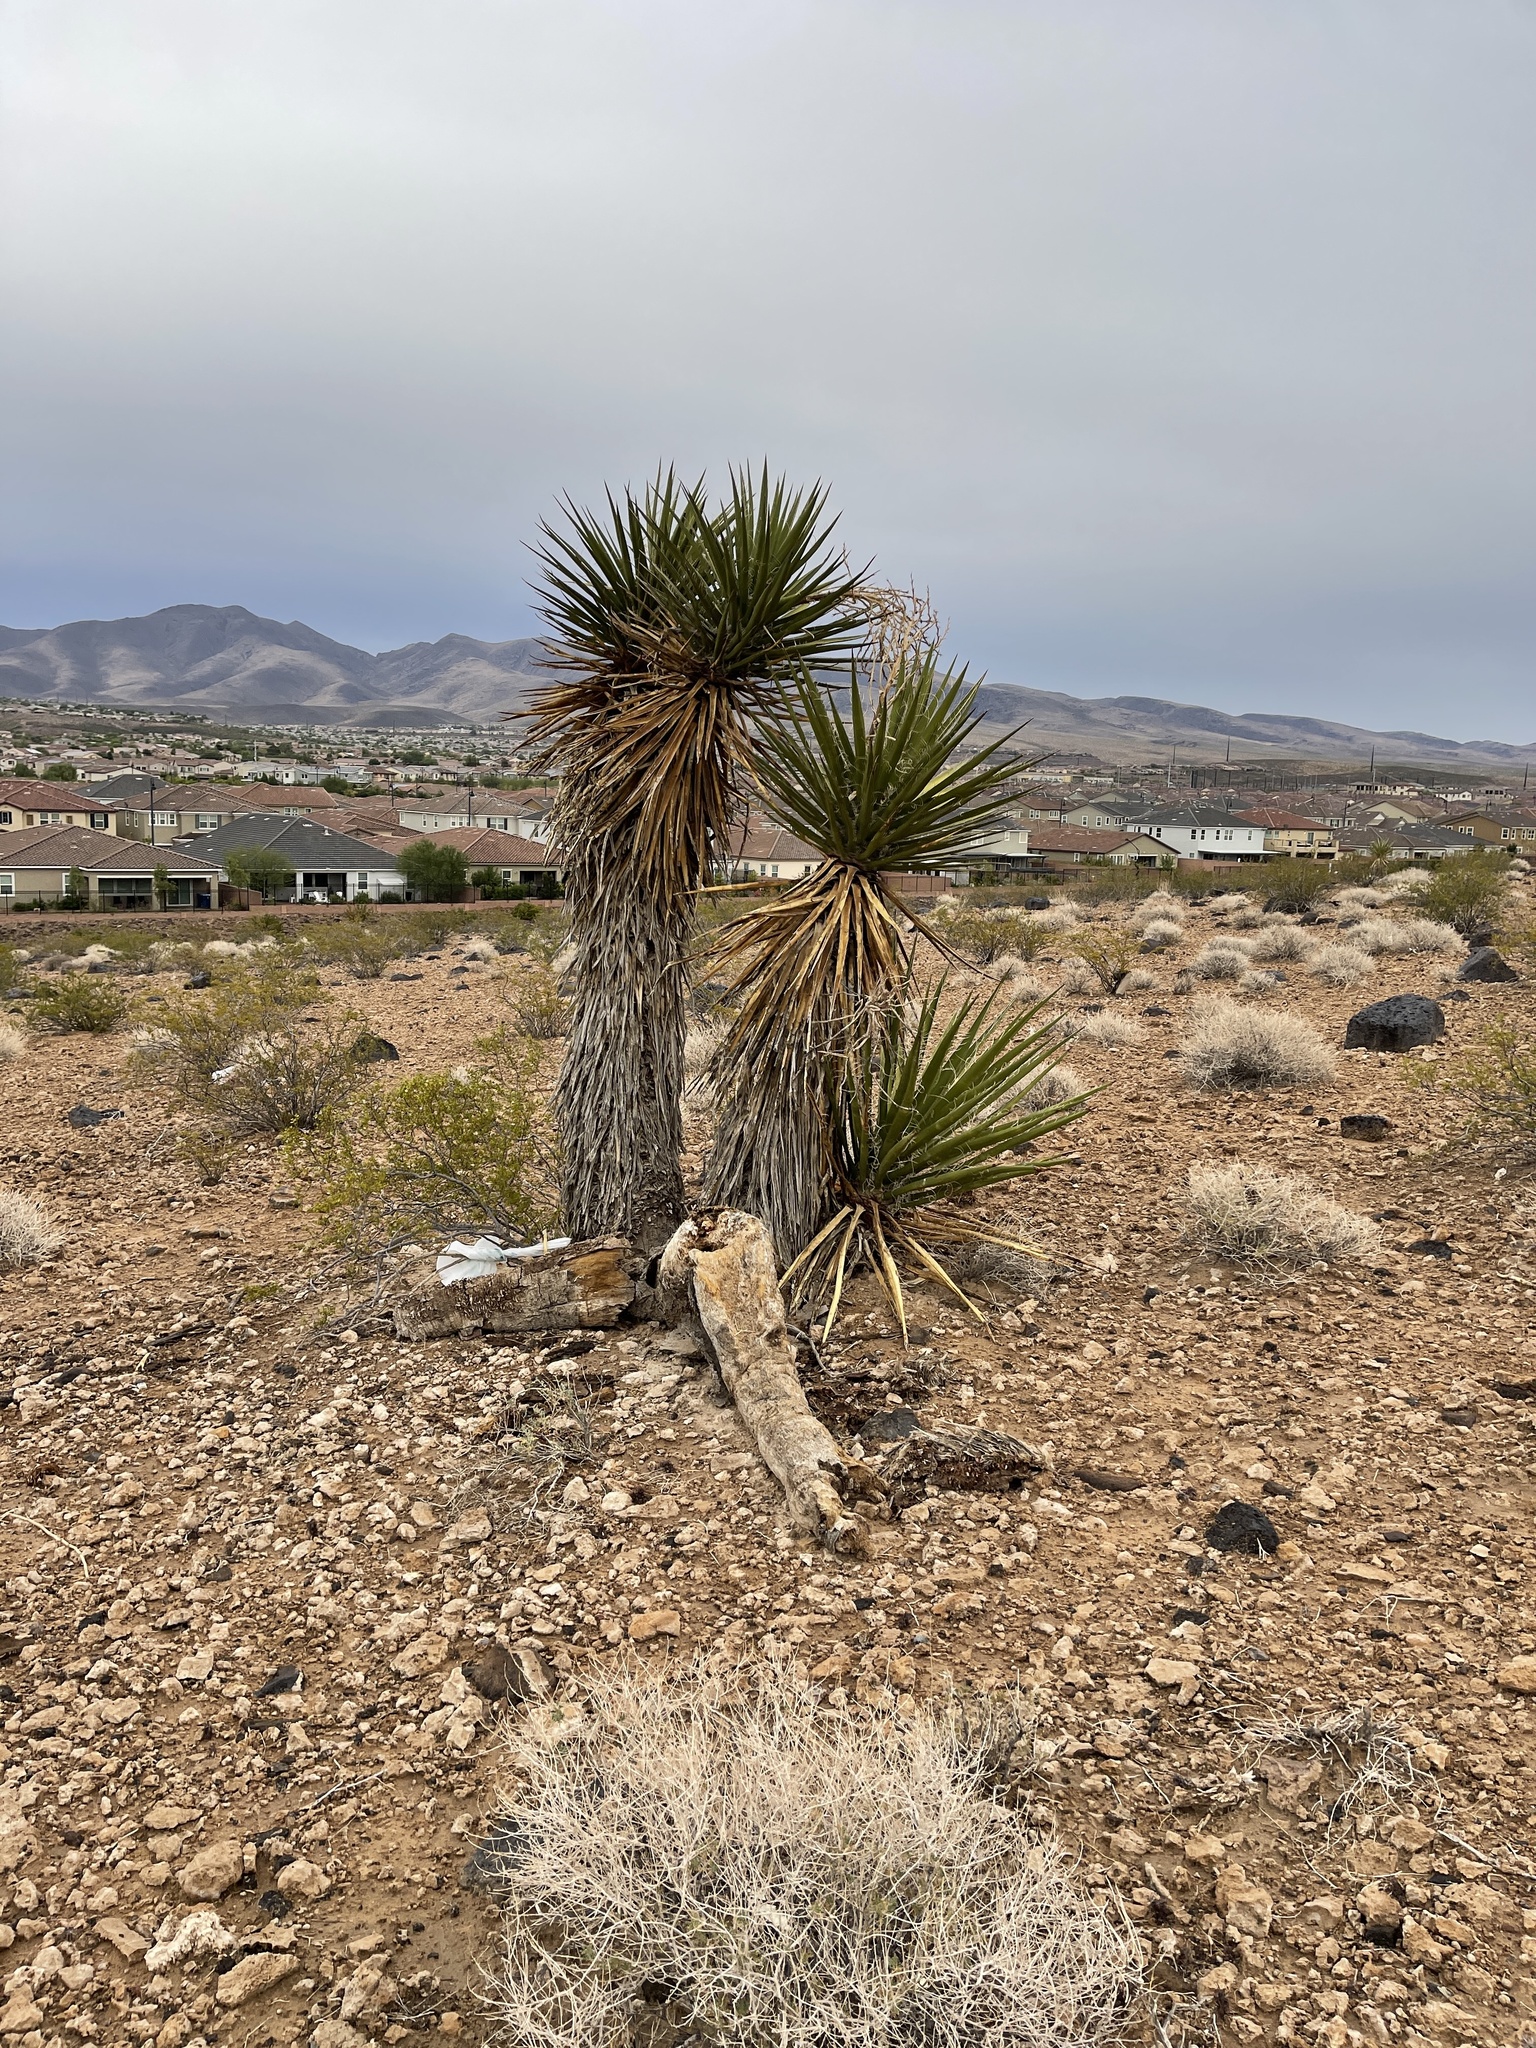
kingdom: Plantae
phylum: Tracheophyta
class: Liliopsida
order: Asparagales
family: Asparagaceae
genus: Yucca
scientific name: Yucca schidigera
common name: Mojave yucca
